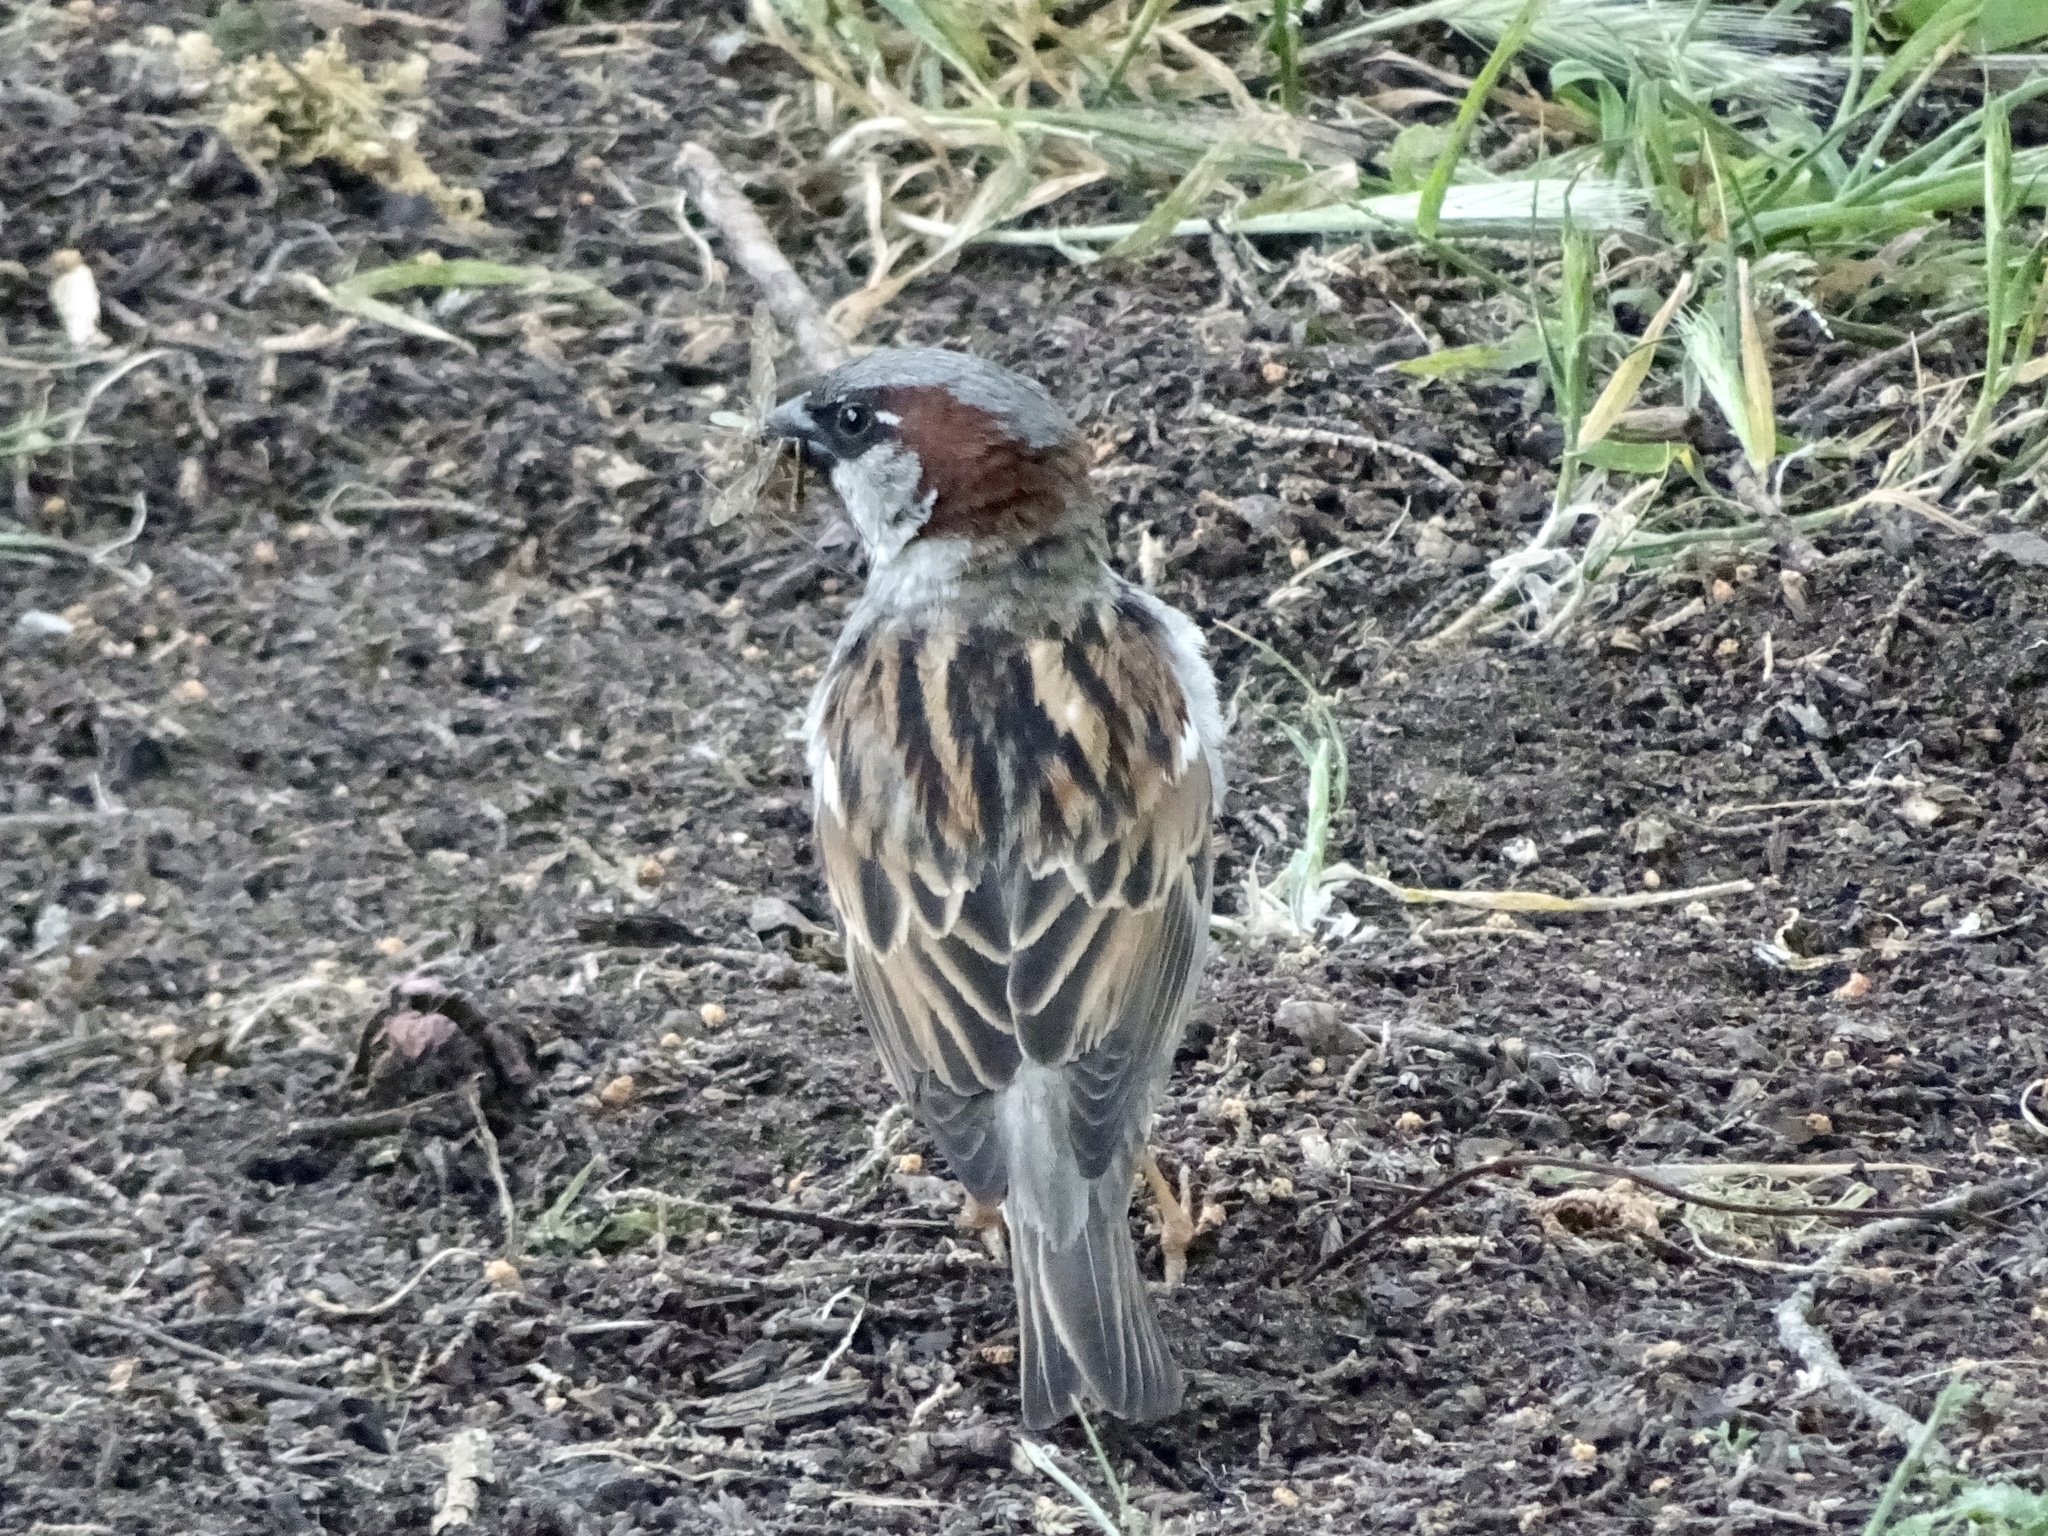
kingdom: Animalia
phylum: Chordata
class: Aves
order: Passeriformes
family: Passeridae
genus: Passer
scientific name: Passer domesticus
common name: House sparrow
